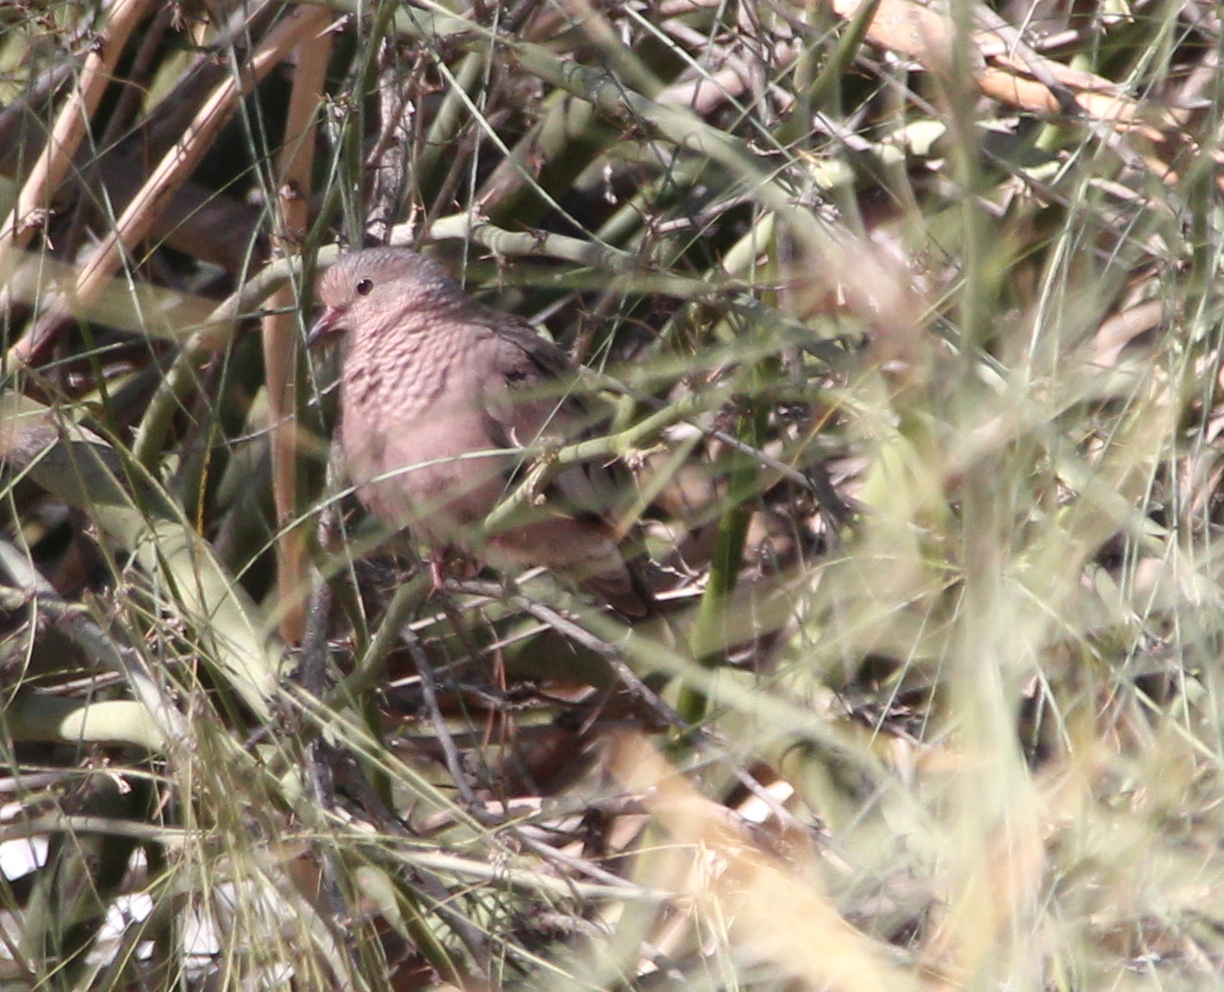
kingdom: Animalia
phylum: Chordata
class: Aves
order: Columbiformes
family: Columbidae
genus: Columbina
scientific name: Columbina passerina
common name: Common ground-dove
